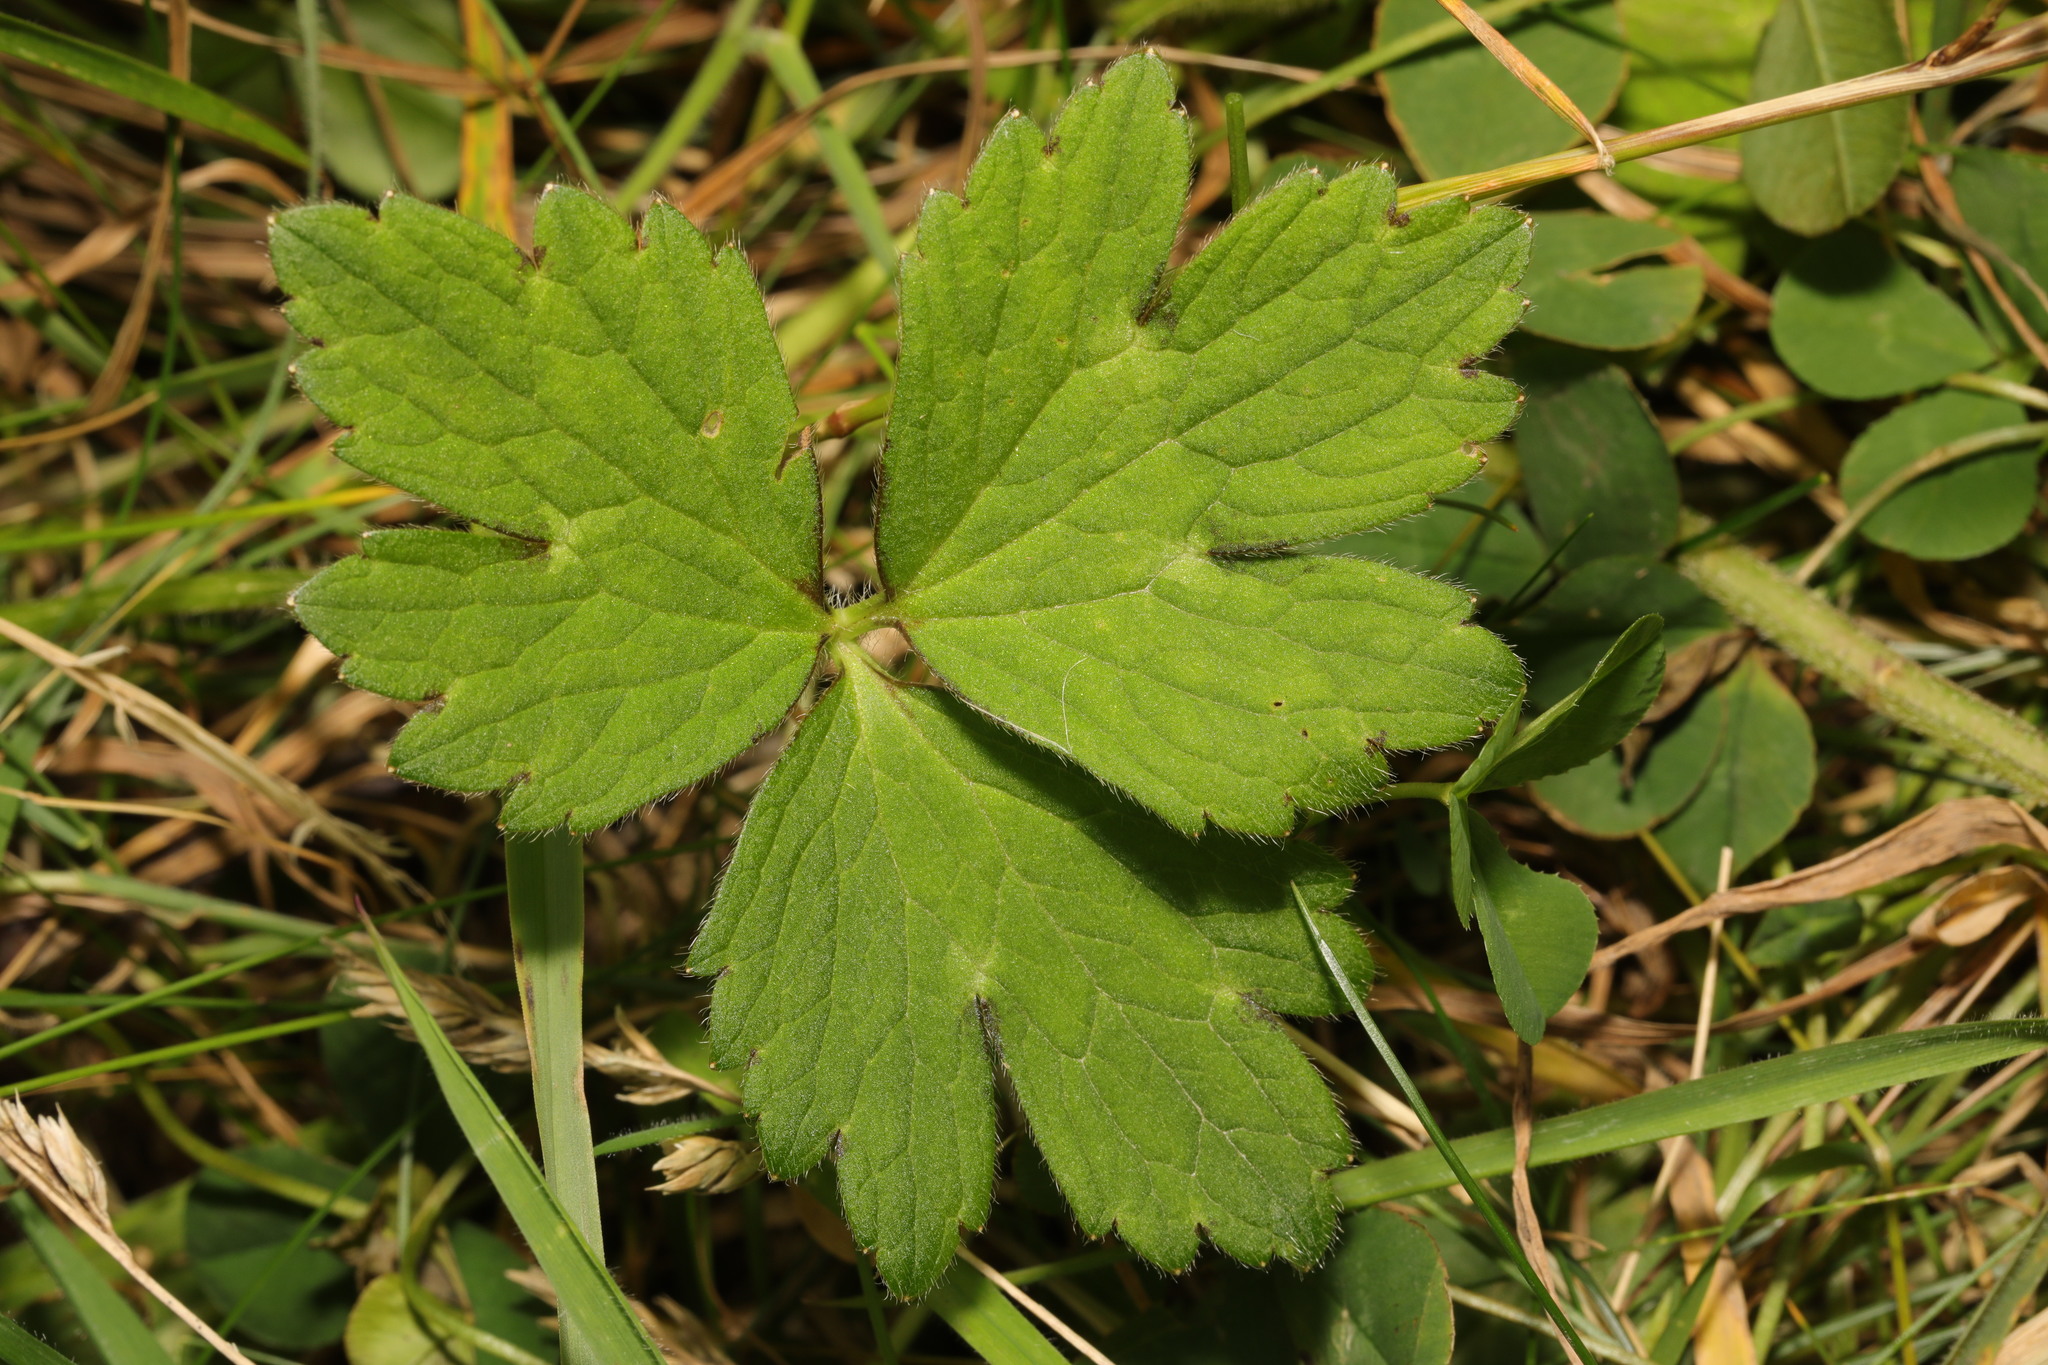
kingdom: Plantae
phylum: Tracheophyta
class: Magnoliopsida
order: Ranunculales
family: Ranunculaceae
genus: Ranunculus
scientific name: Ranunculus repens
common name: Creeping buttercup
